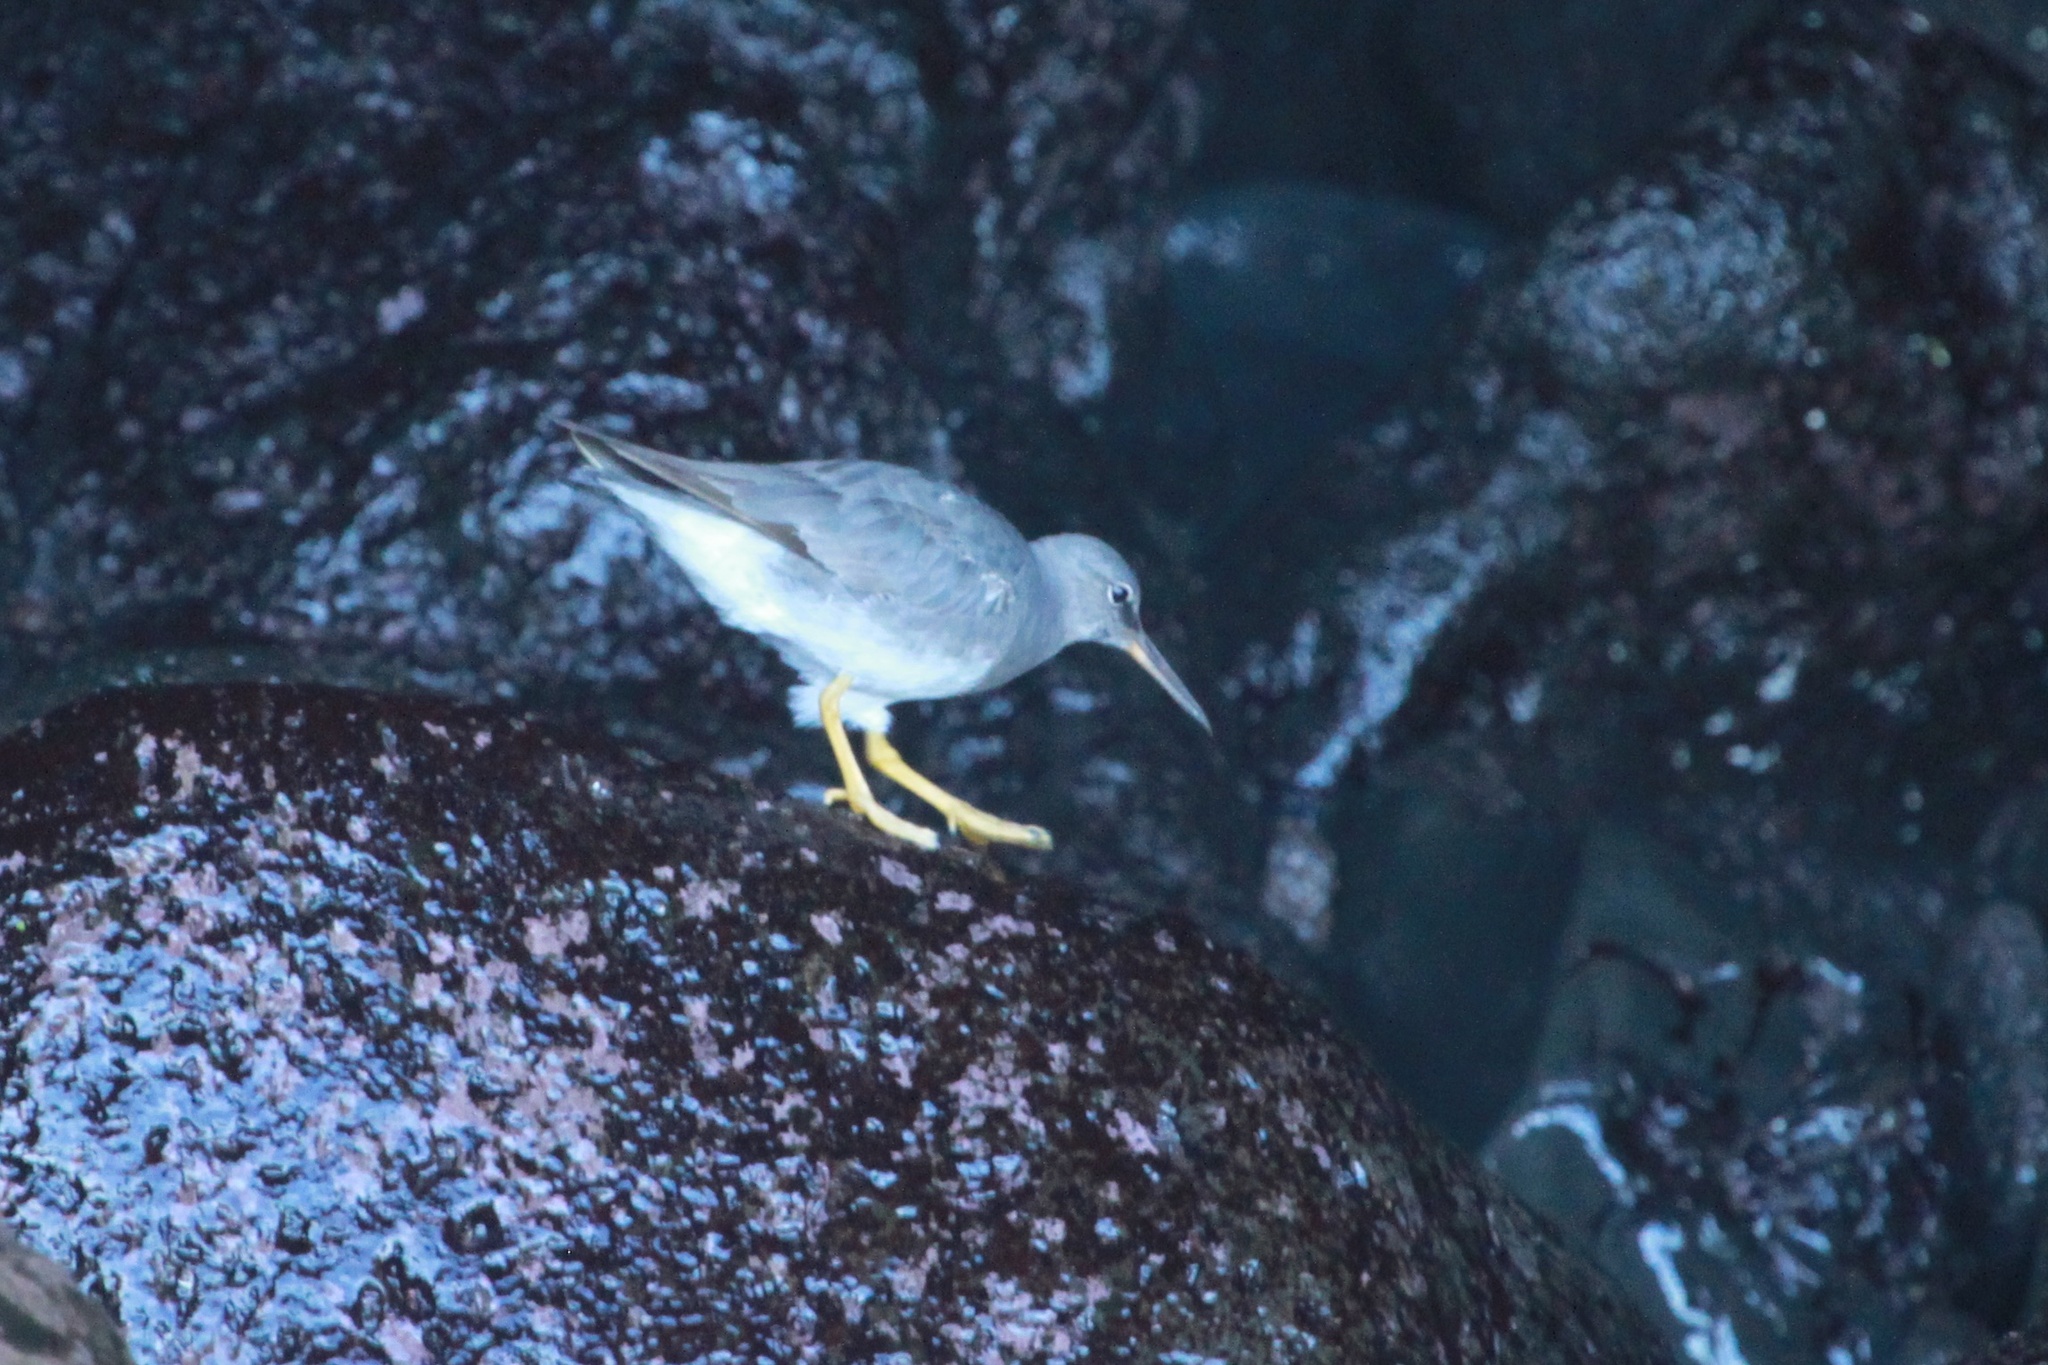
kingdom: Animalia
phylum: Chordata
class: Aves
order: Charadriiformes
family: Scolopacidae
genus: Tringa
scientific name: Tringa incana
